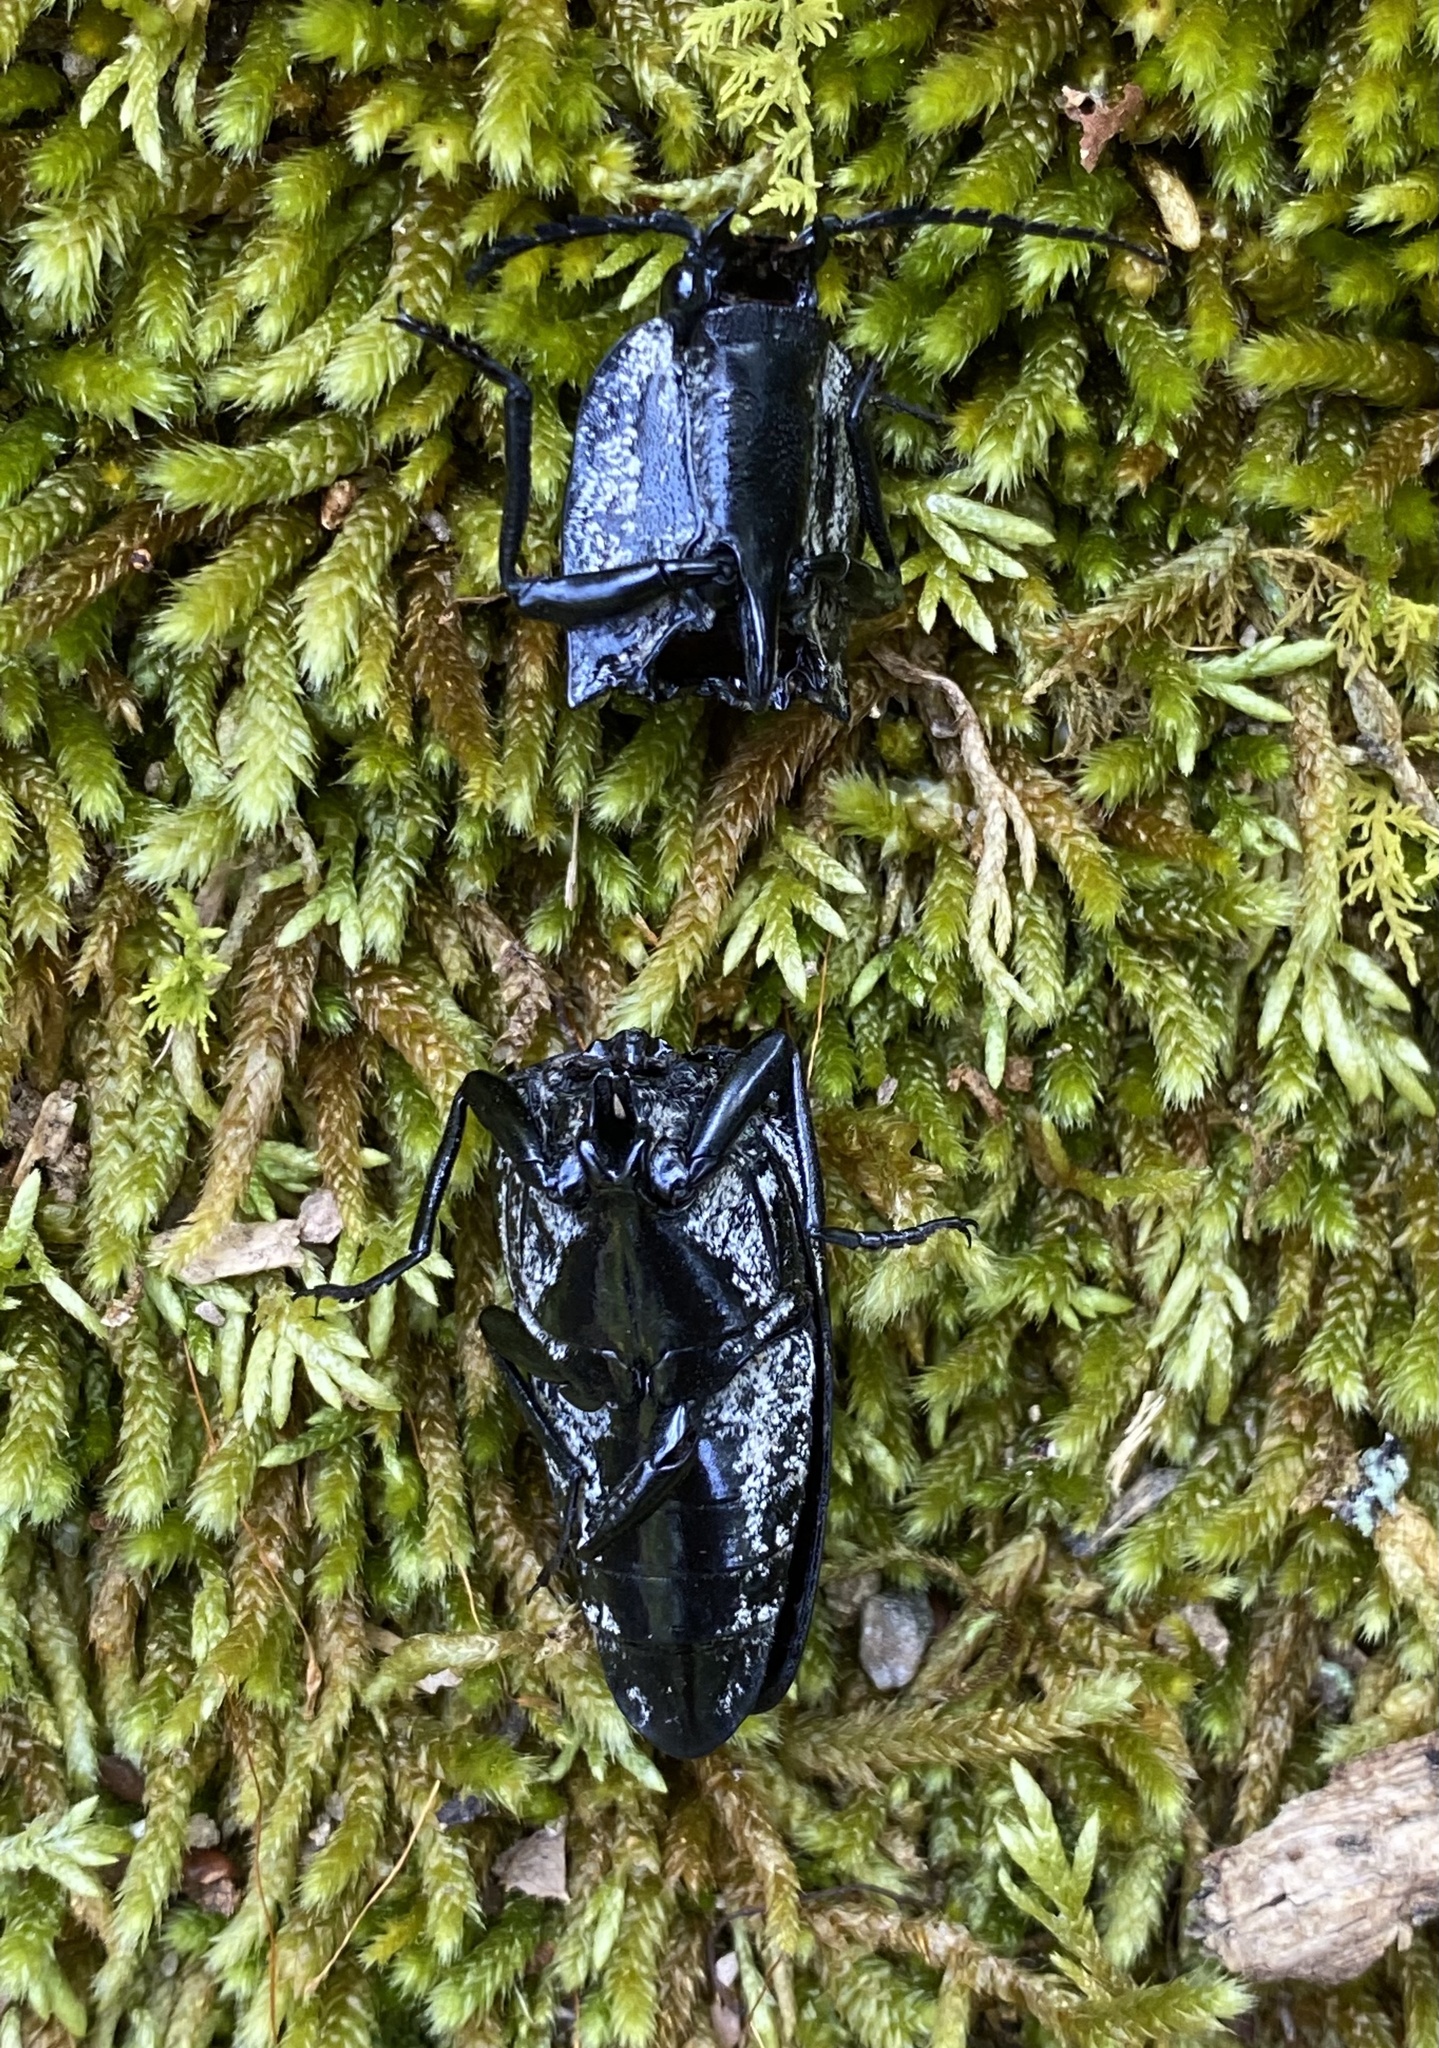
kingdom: Animalia
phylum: Arthropoda
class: Insecta
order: Coleoptera
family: Elateridae
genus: Alaus
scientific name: Alaus oculatus
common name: Eastern eyed click beetle
